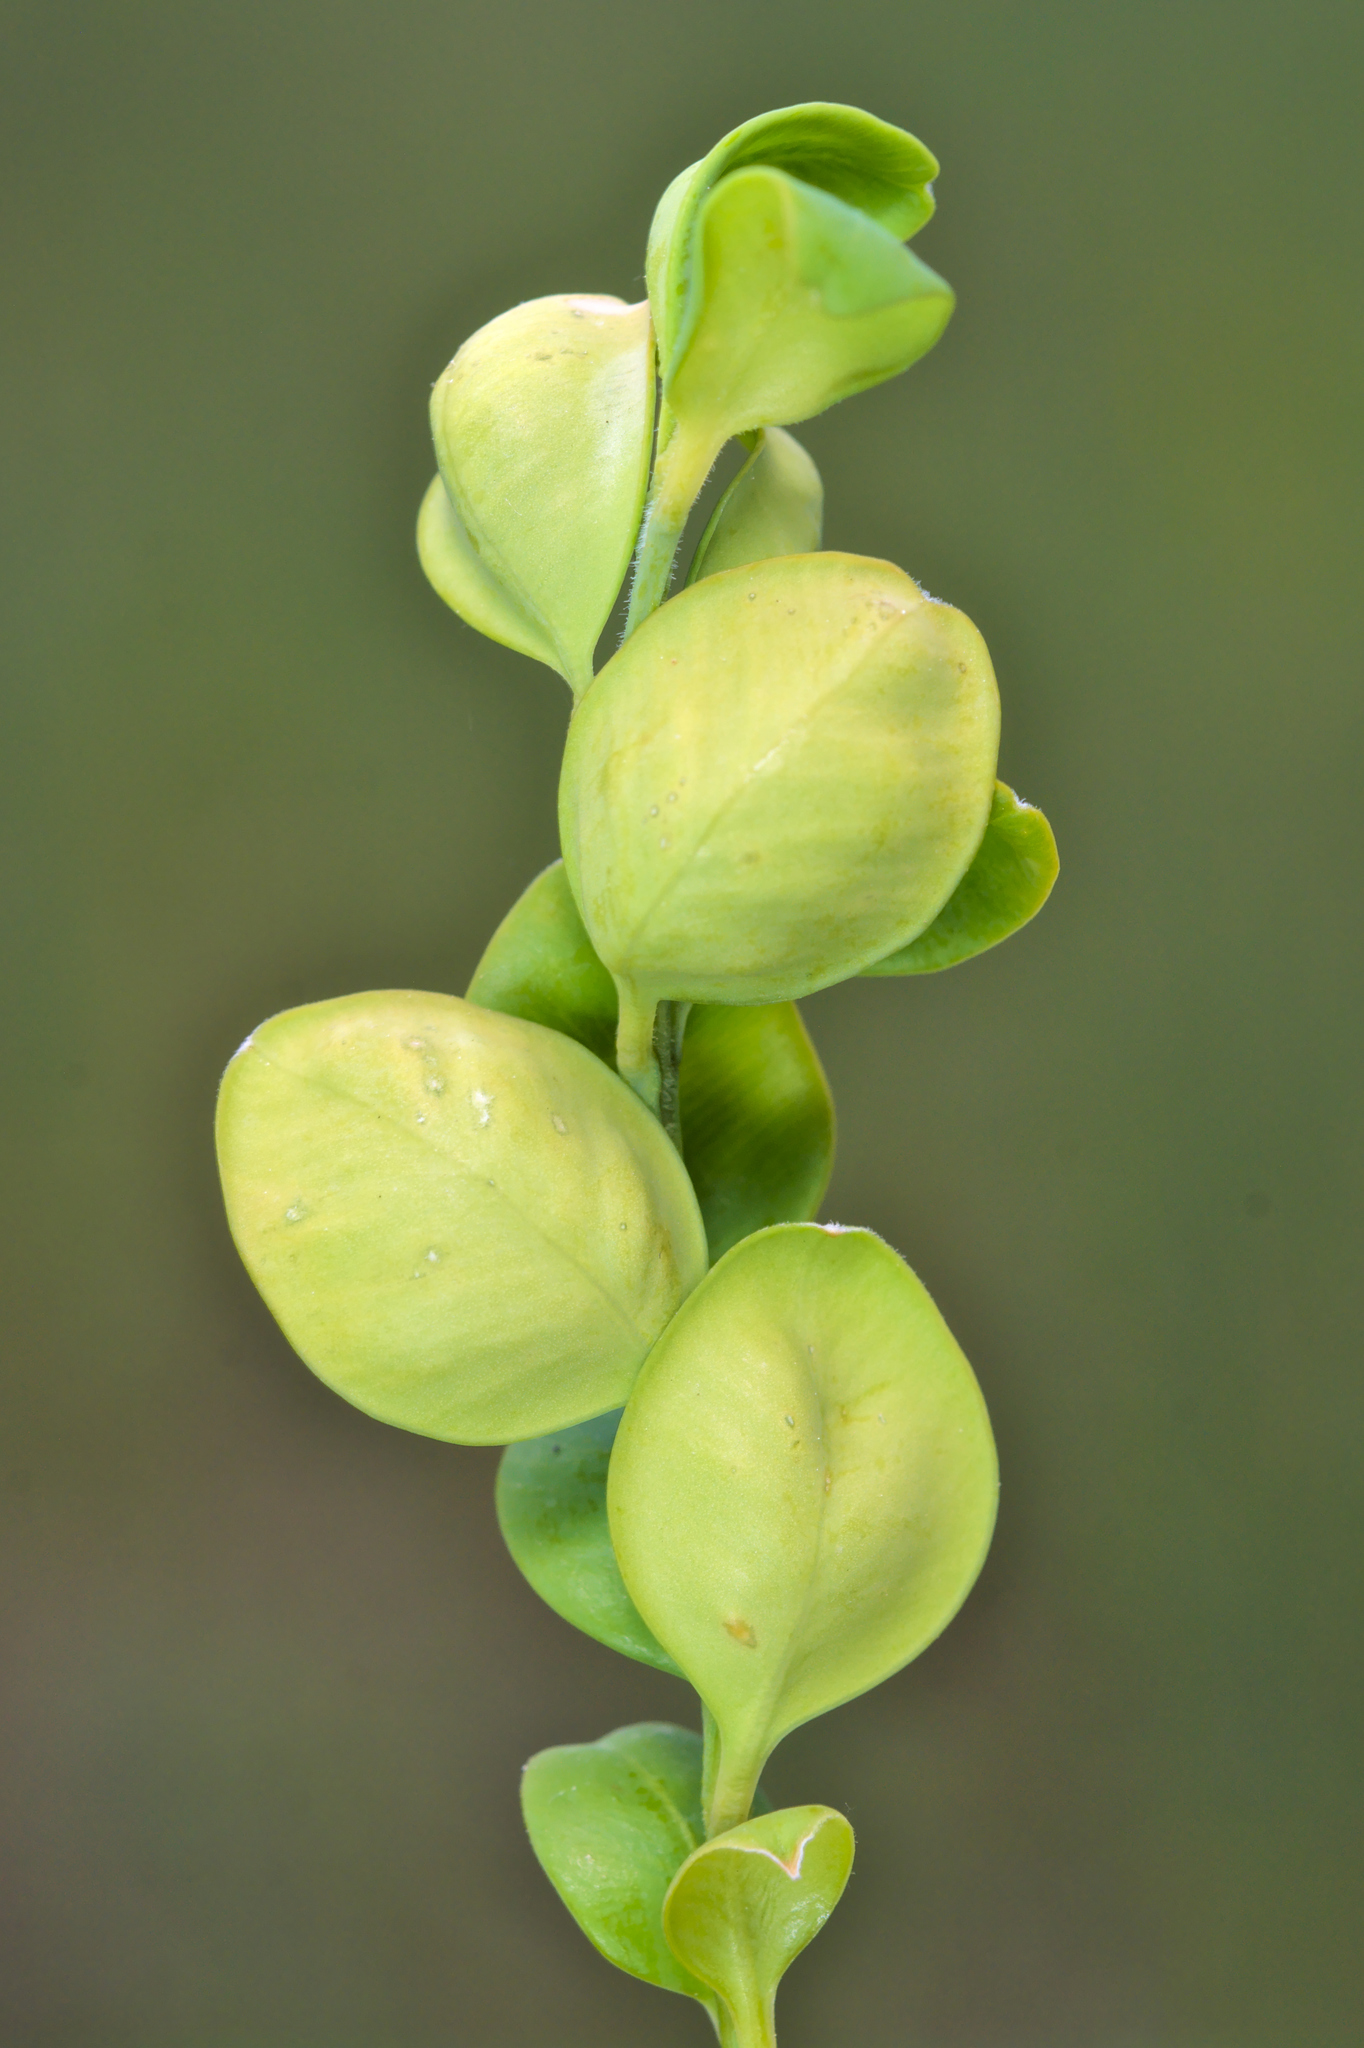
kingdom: Animalia
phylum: Arthropoda
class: Insecta
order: Hemiptera
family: Psyllidae
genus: Psylla
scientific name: Psylla buxi
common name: Boxwood psyllid
